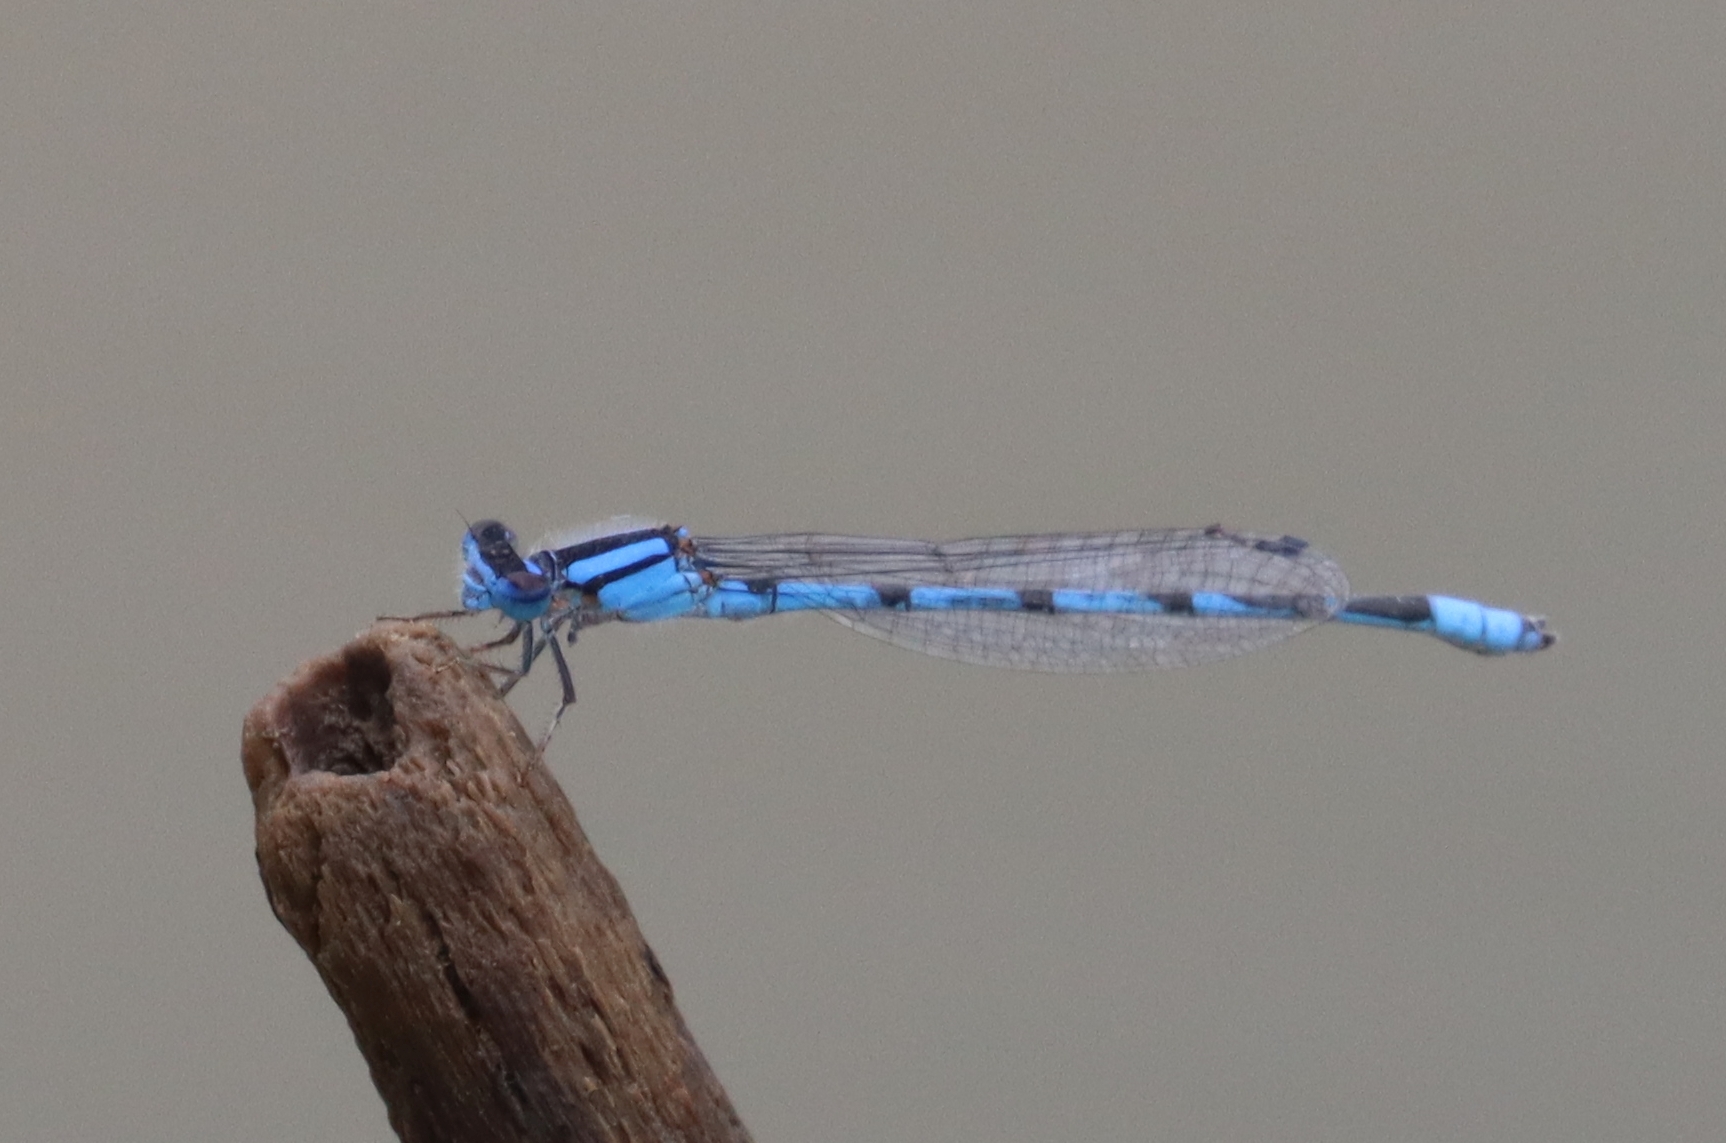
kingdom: Animalia
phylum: Arthropoda
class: Insecta
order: Odonata
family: Coenagrionidae
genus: Enallagma
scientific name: Enallagma civile
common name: Damselfly
